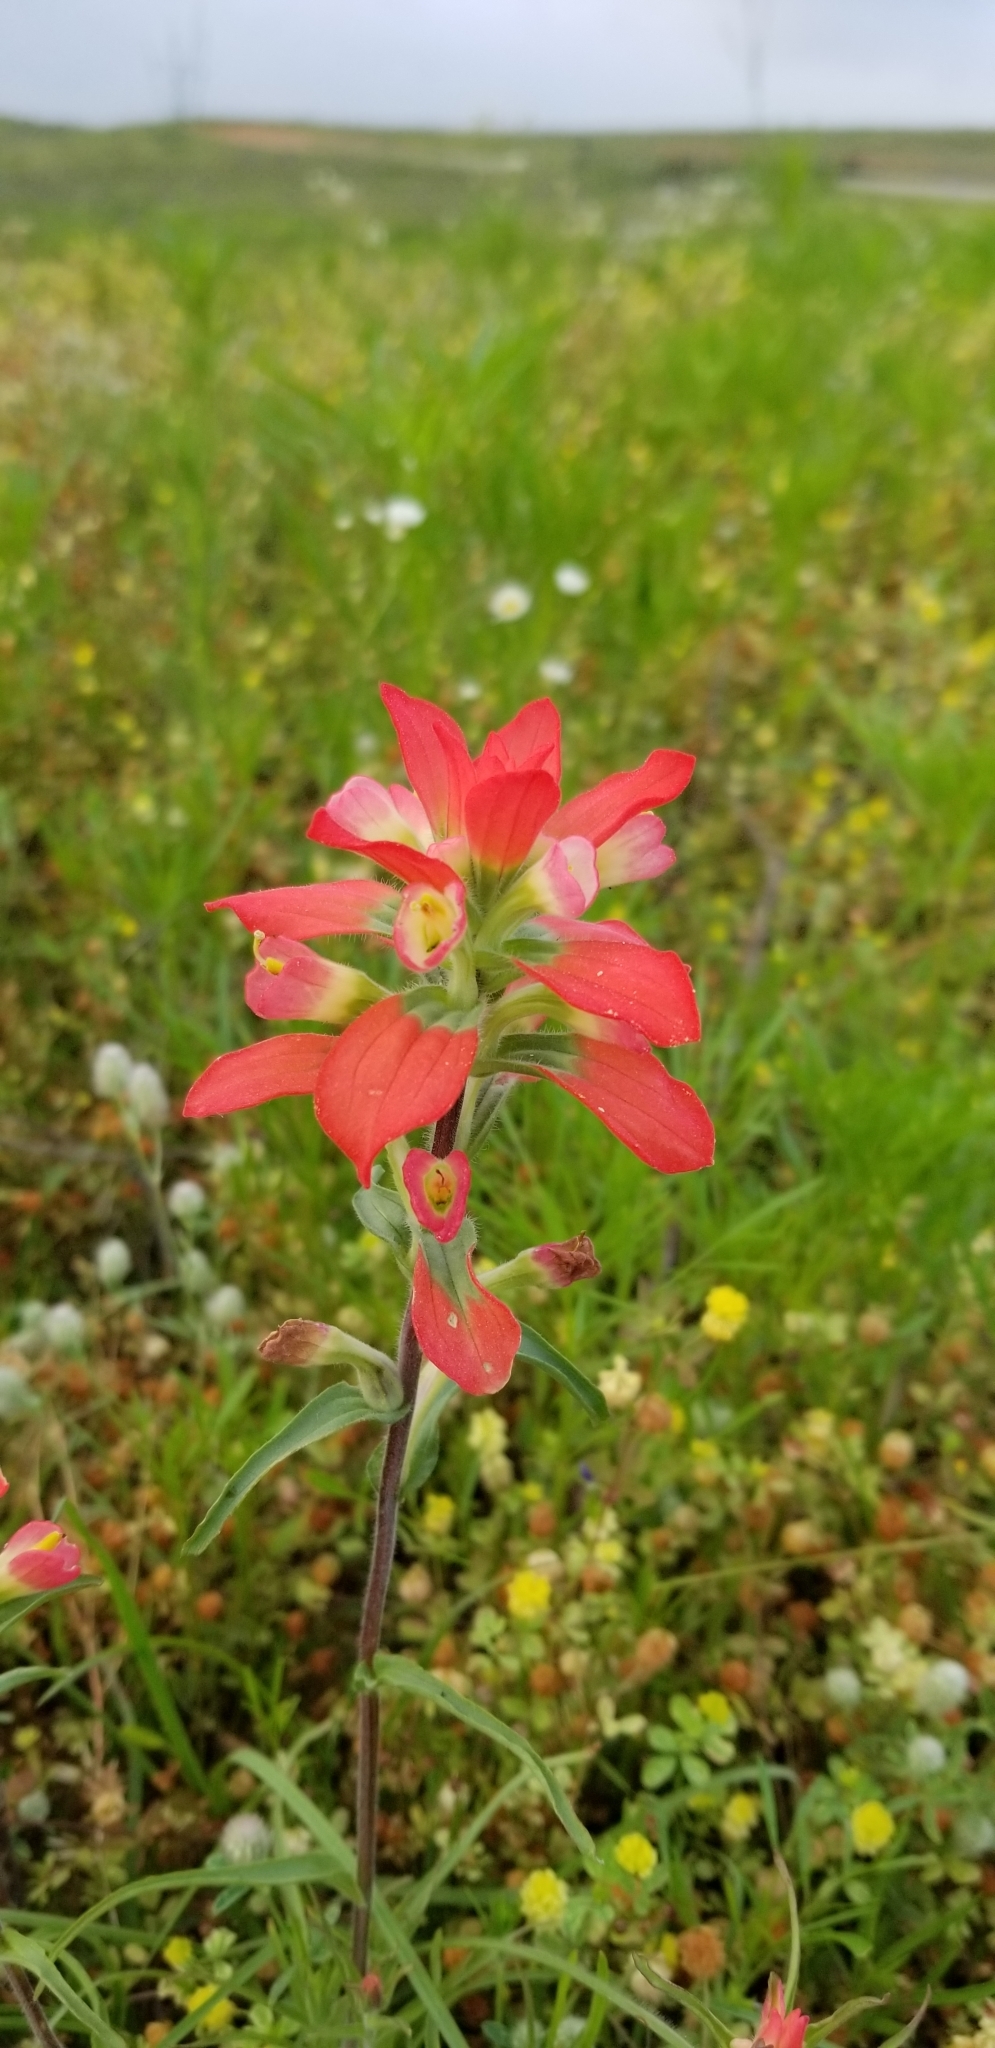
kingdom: Plantae
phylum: Tracheophyta
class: Magnoliopsida
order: Lamiales
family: Orobanchaceae
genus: Castilleja
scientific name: Castilleja indivisa
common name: Texas paintbrush
